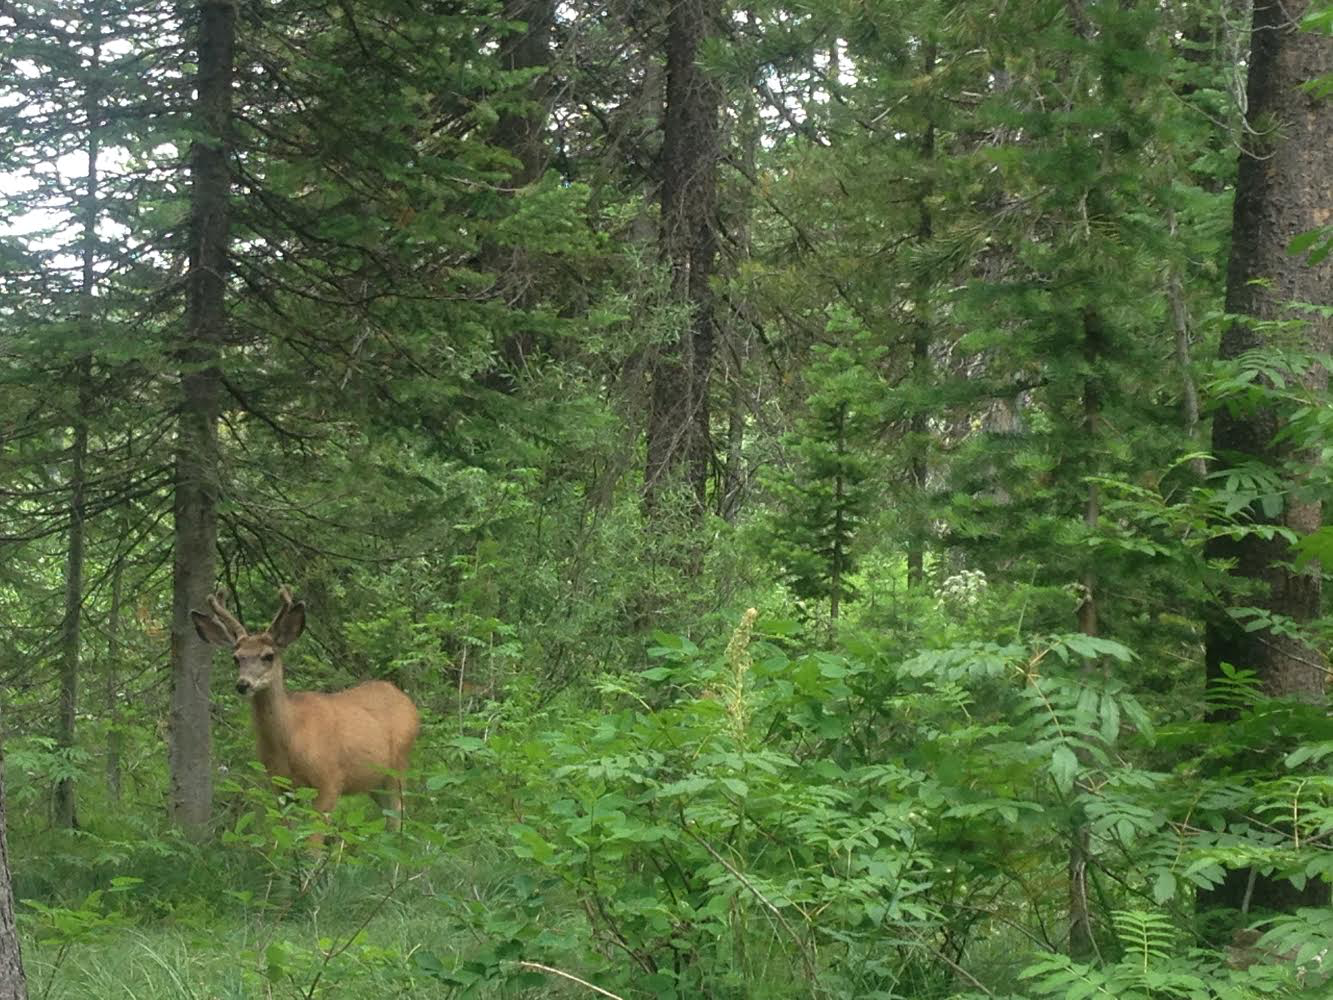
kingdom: Animalia
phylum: Chordata
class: Mammalia
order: Artiodactyla
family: Cervidae
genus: Odocoileus
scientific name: Odocoileus hemionus
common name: Mule deer
